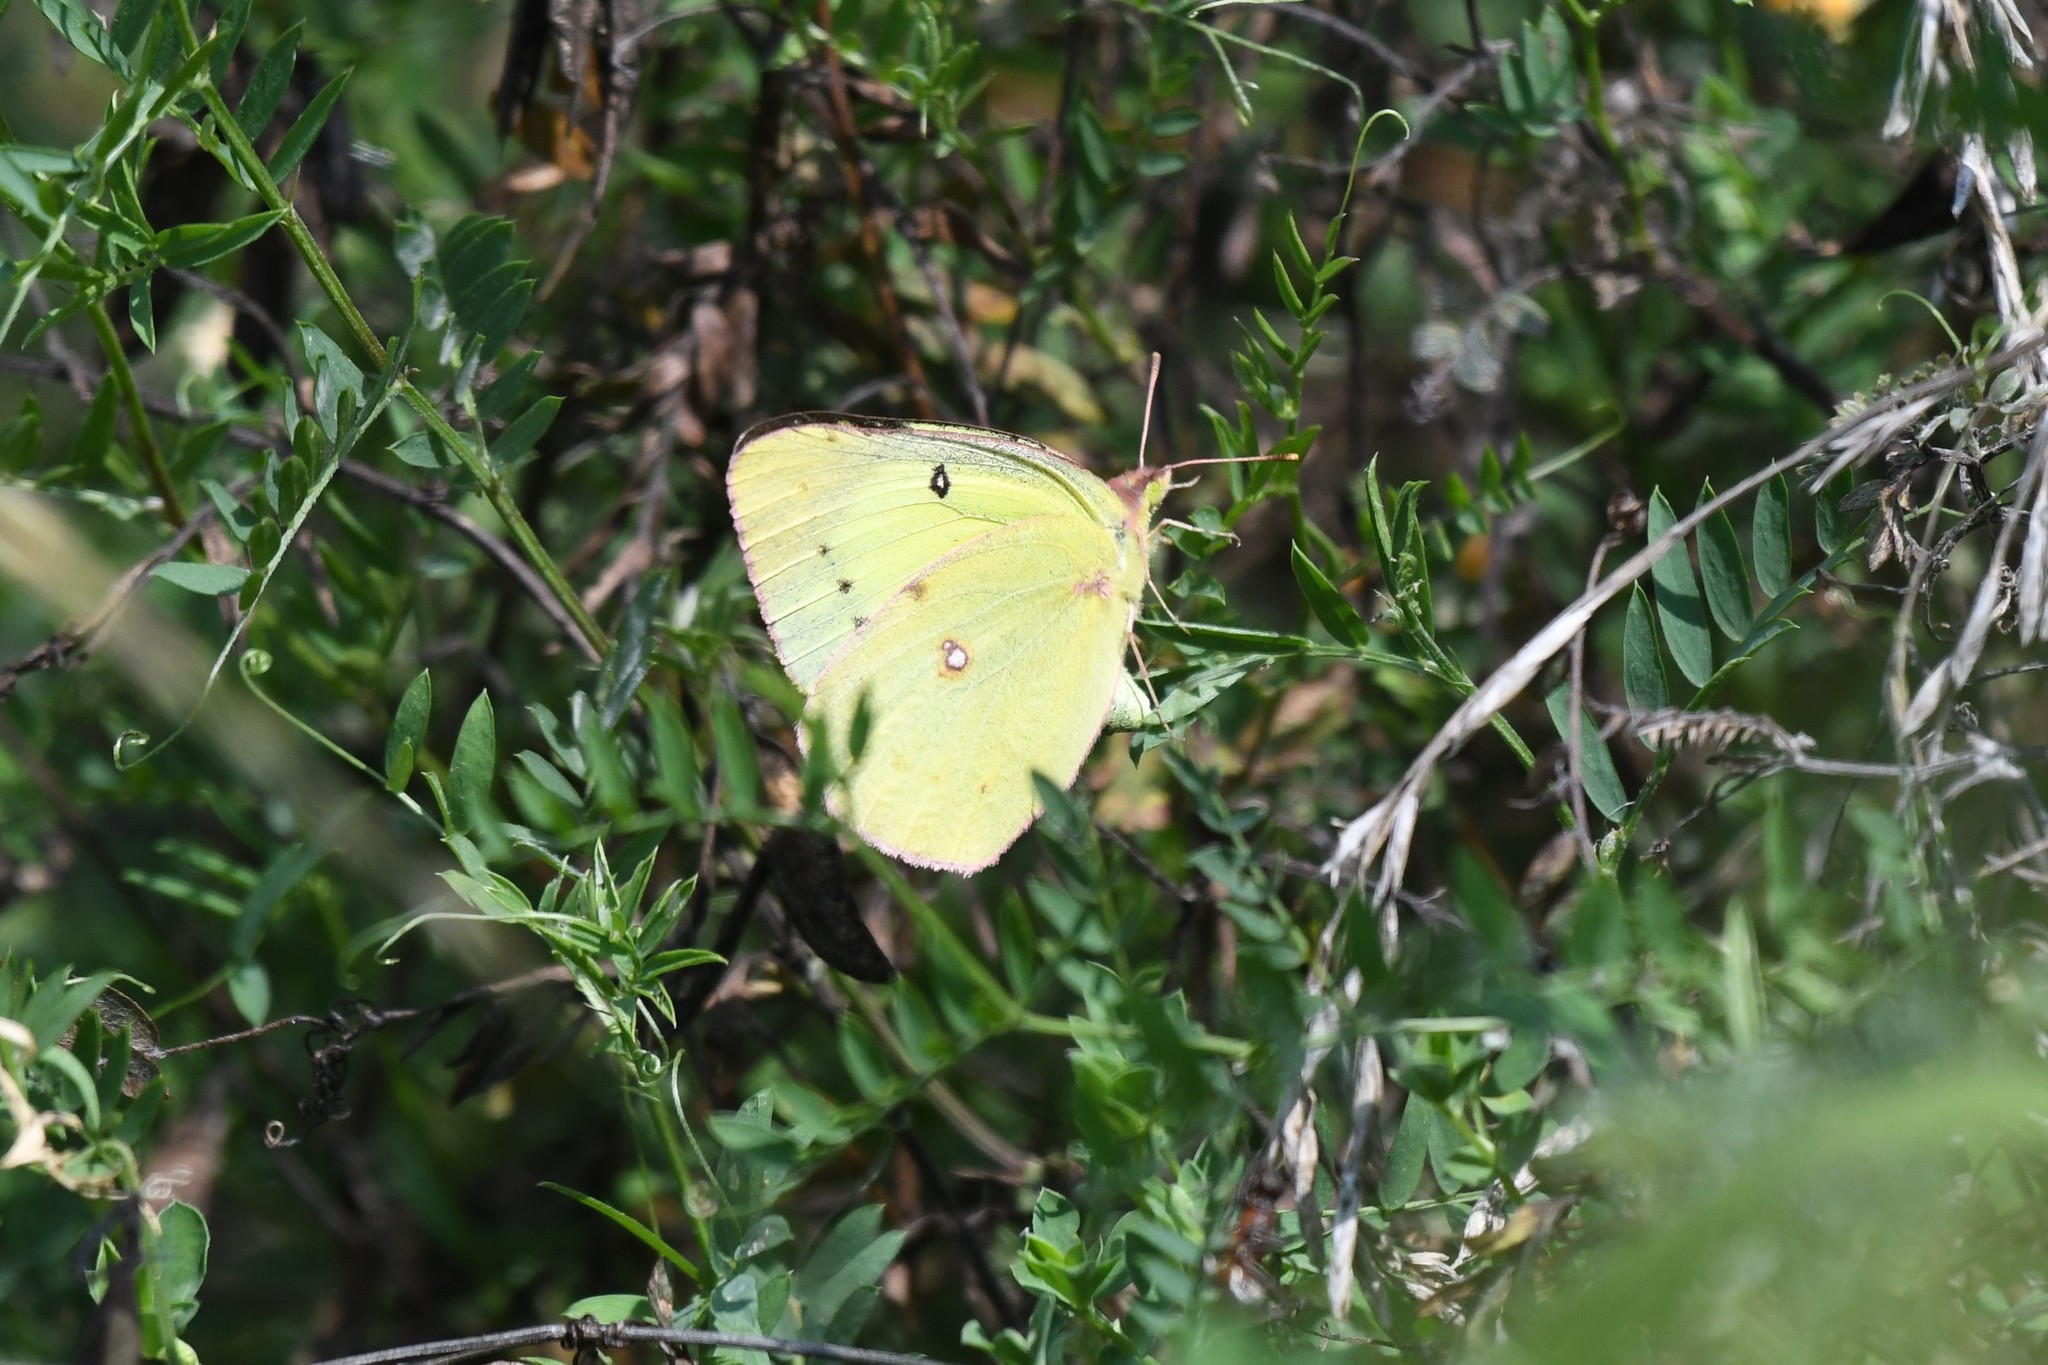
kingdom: Animalia
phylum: Arthropoda
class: Insecta
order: Lepidoptera
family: Pieridae
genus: Colias
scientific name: Colias philodice
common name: Clouded sulphur
